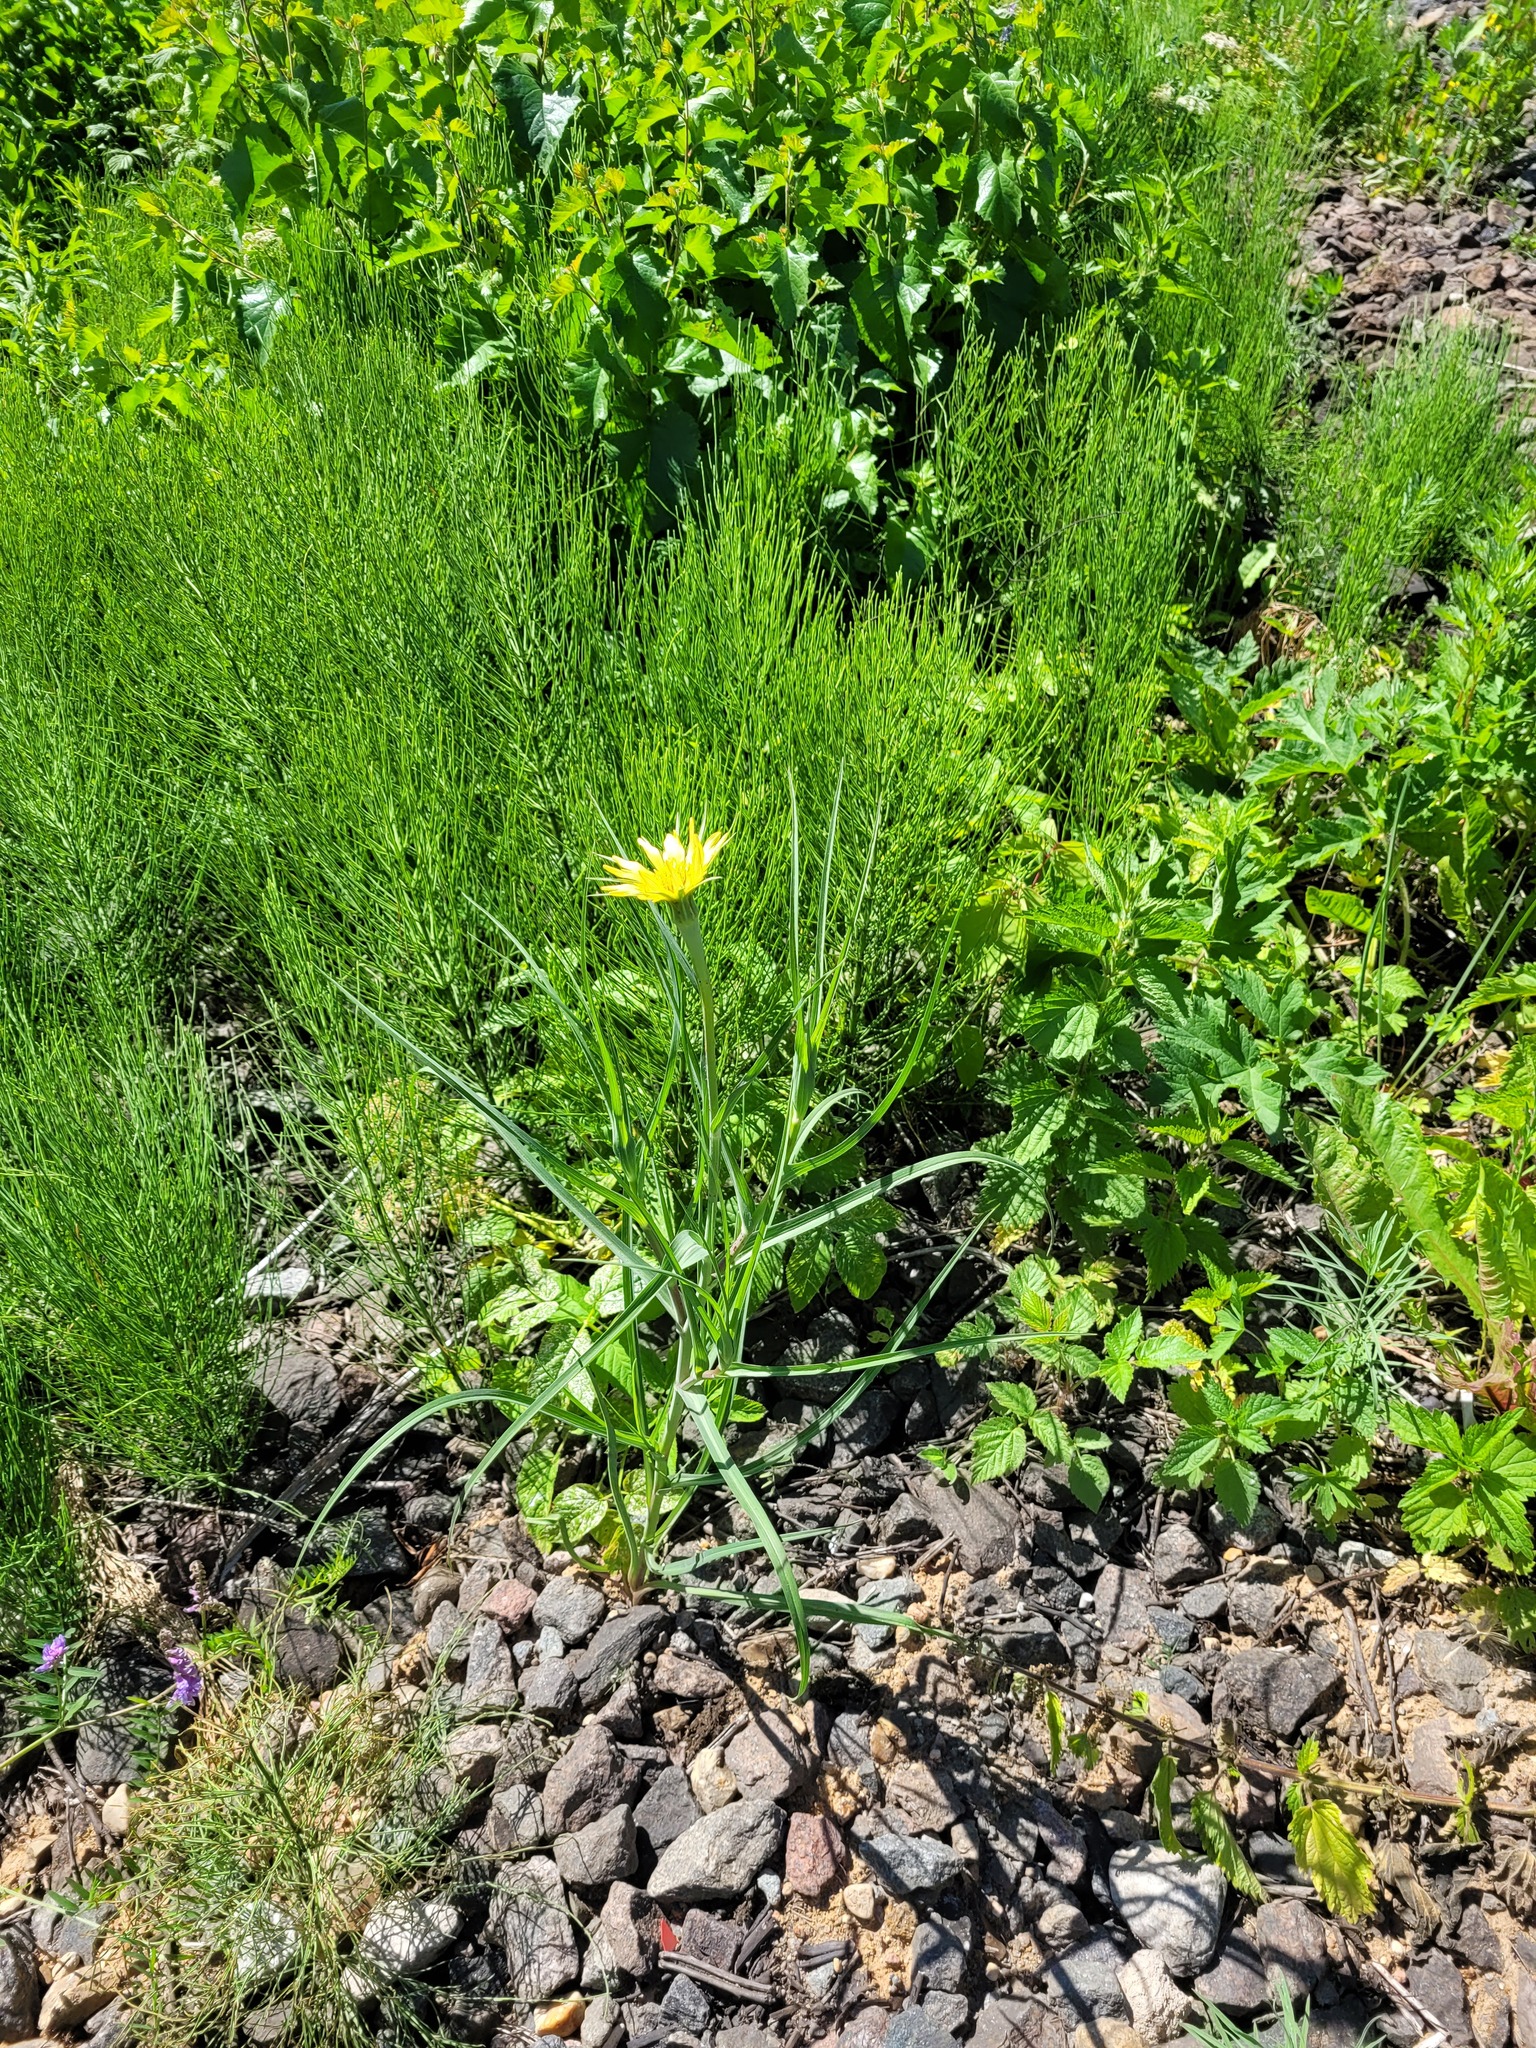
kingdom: Plantae
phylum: Tracheophyta
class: Magnoliopsida
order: Asterales
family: Asteraceae
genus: Tragopogon
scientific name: Tragopogon dubius
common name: Yellow salsify
